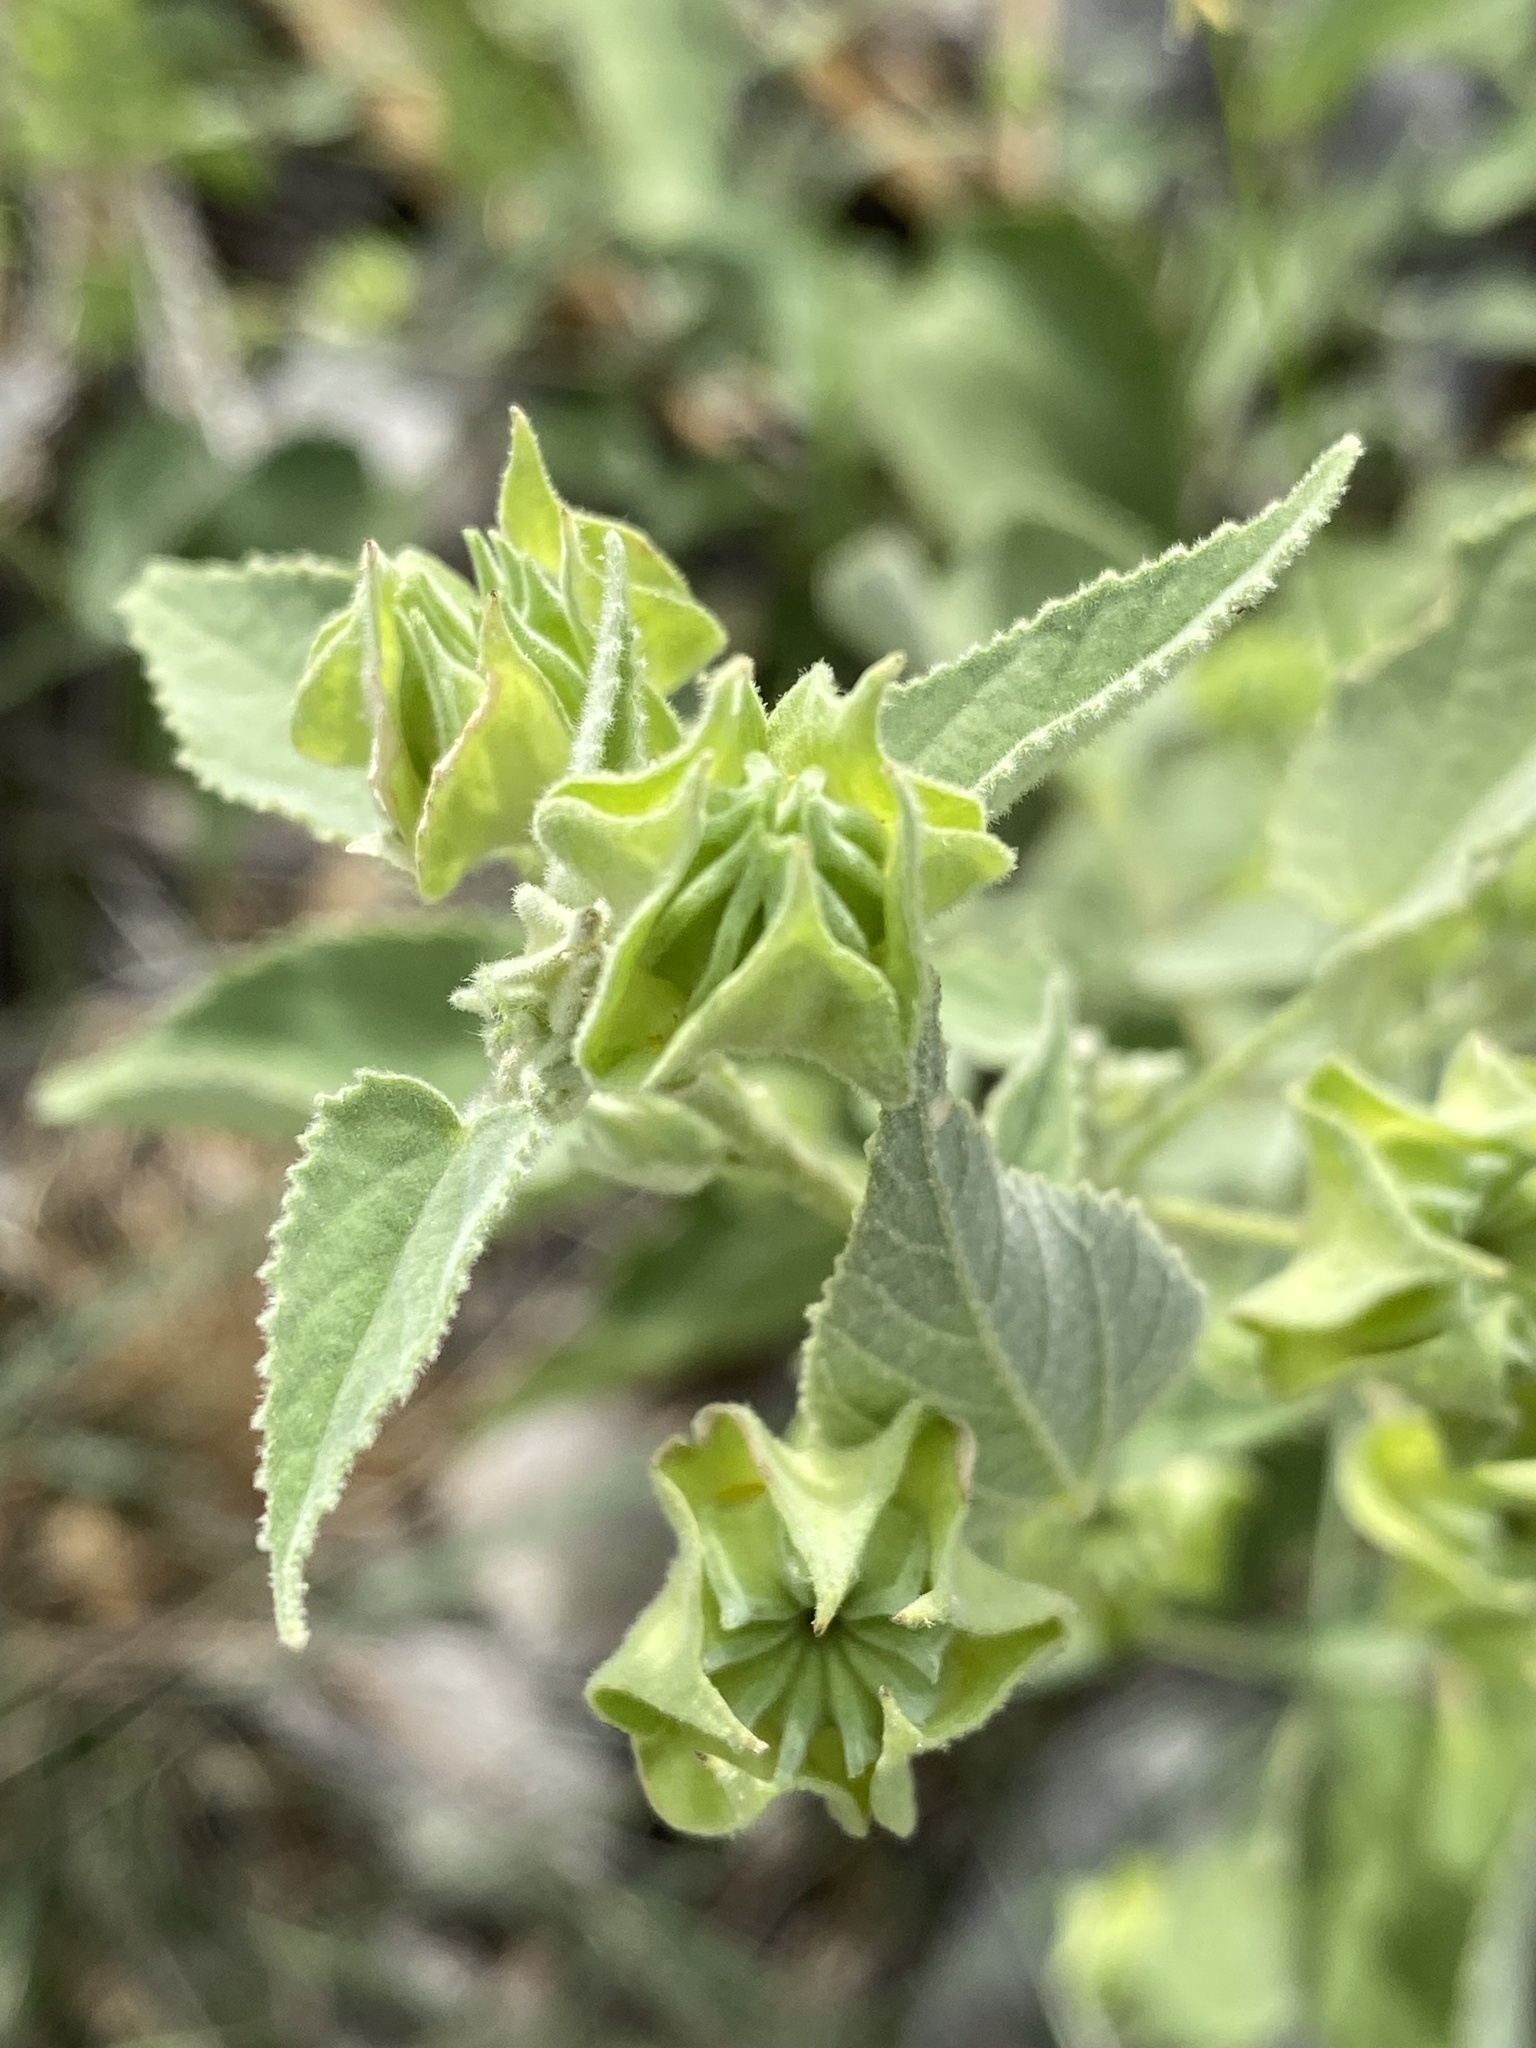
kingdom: Plantae
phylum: Tracheophyta
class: Magnoliopsida
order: Malvales
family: Malvaceae
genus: Abutilon
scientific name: Abutilon abutiloides
